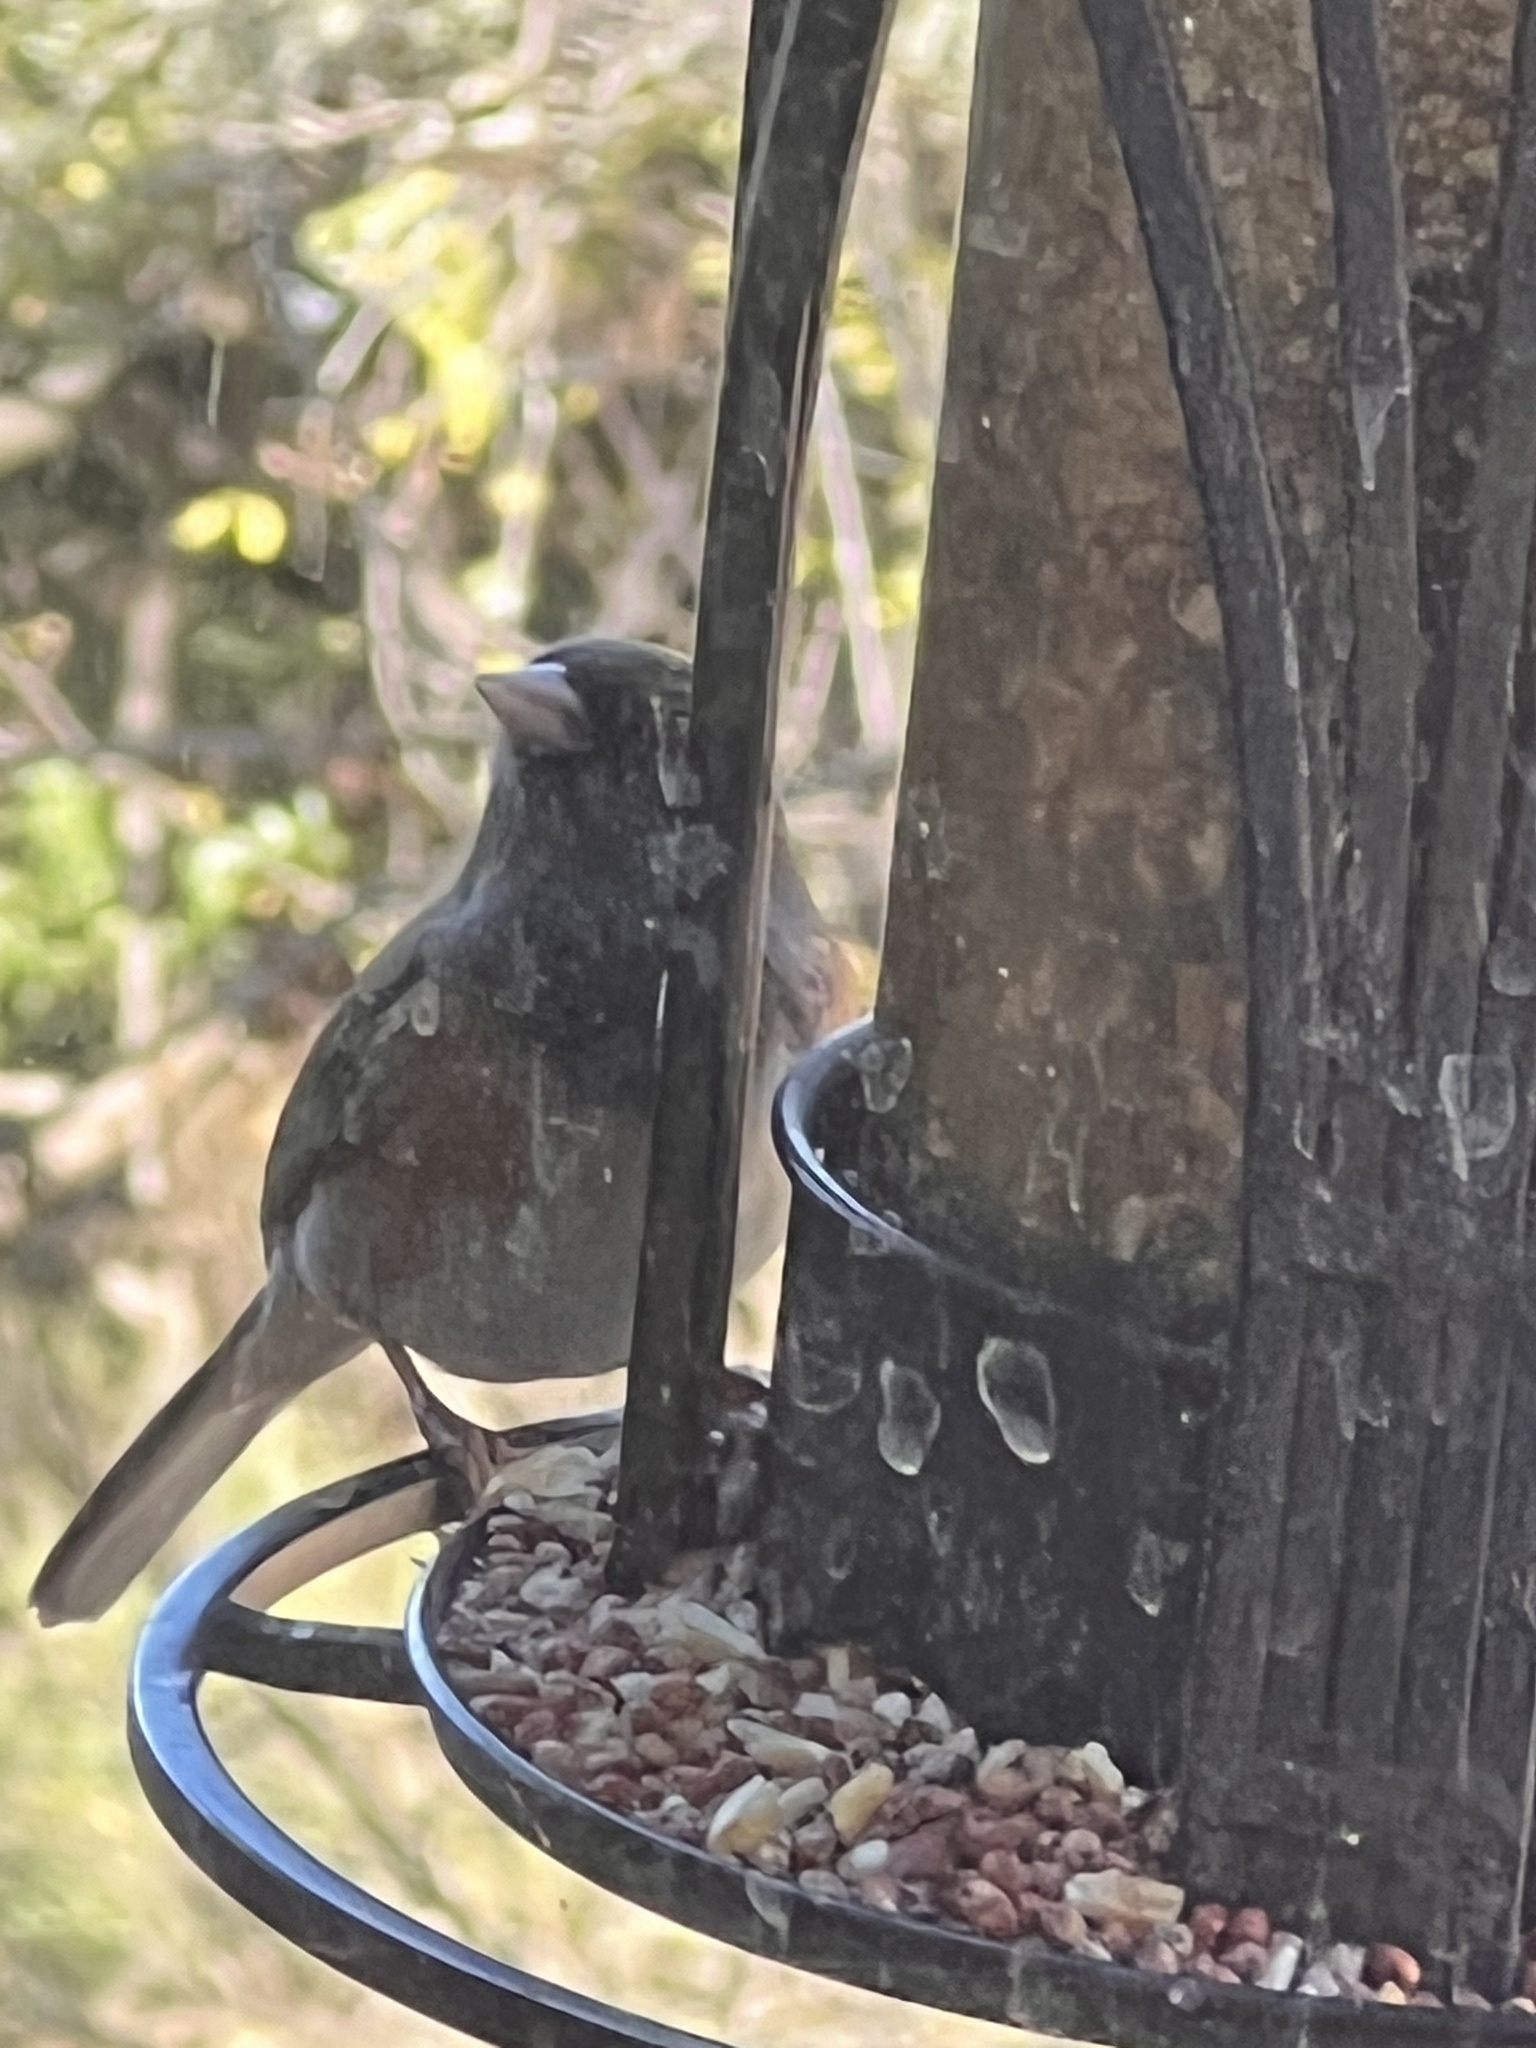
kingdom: Animalia
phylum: Chordata
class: Aves
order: Passeriformes
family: Passerellidae
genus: Junco
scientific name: Junco hyemalis
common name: Dark-eyed junco
